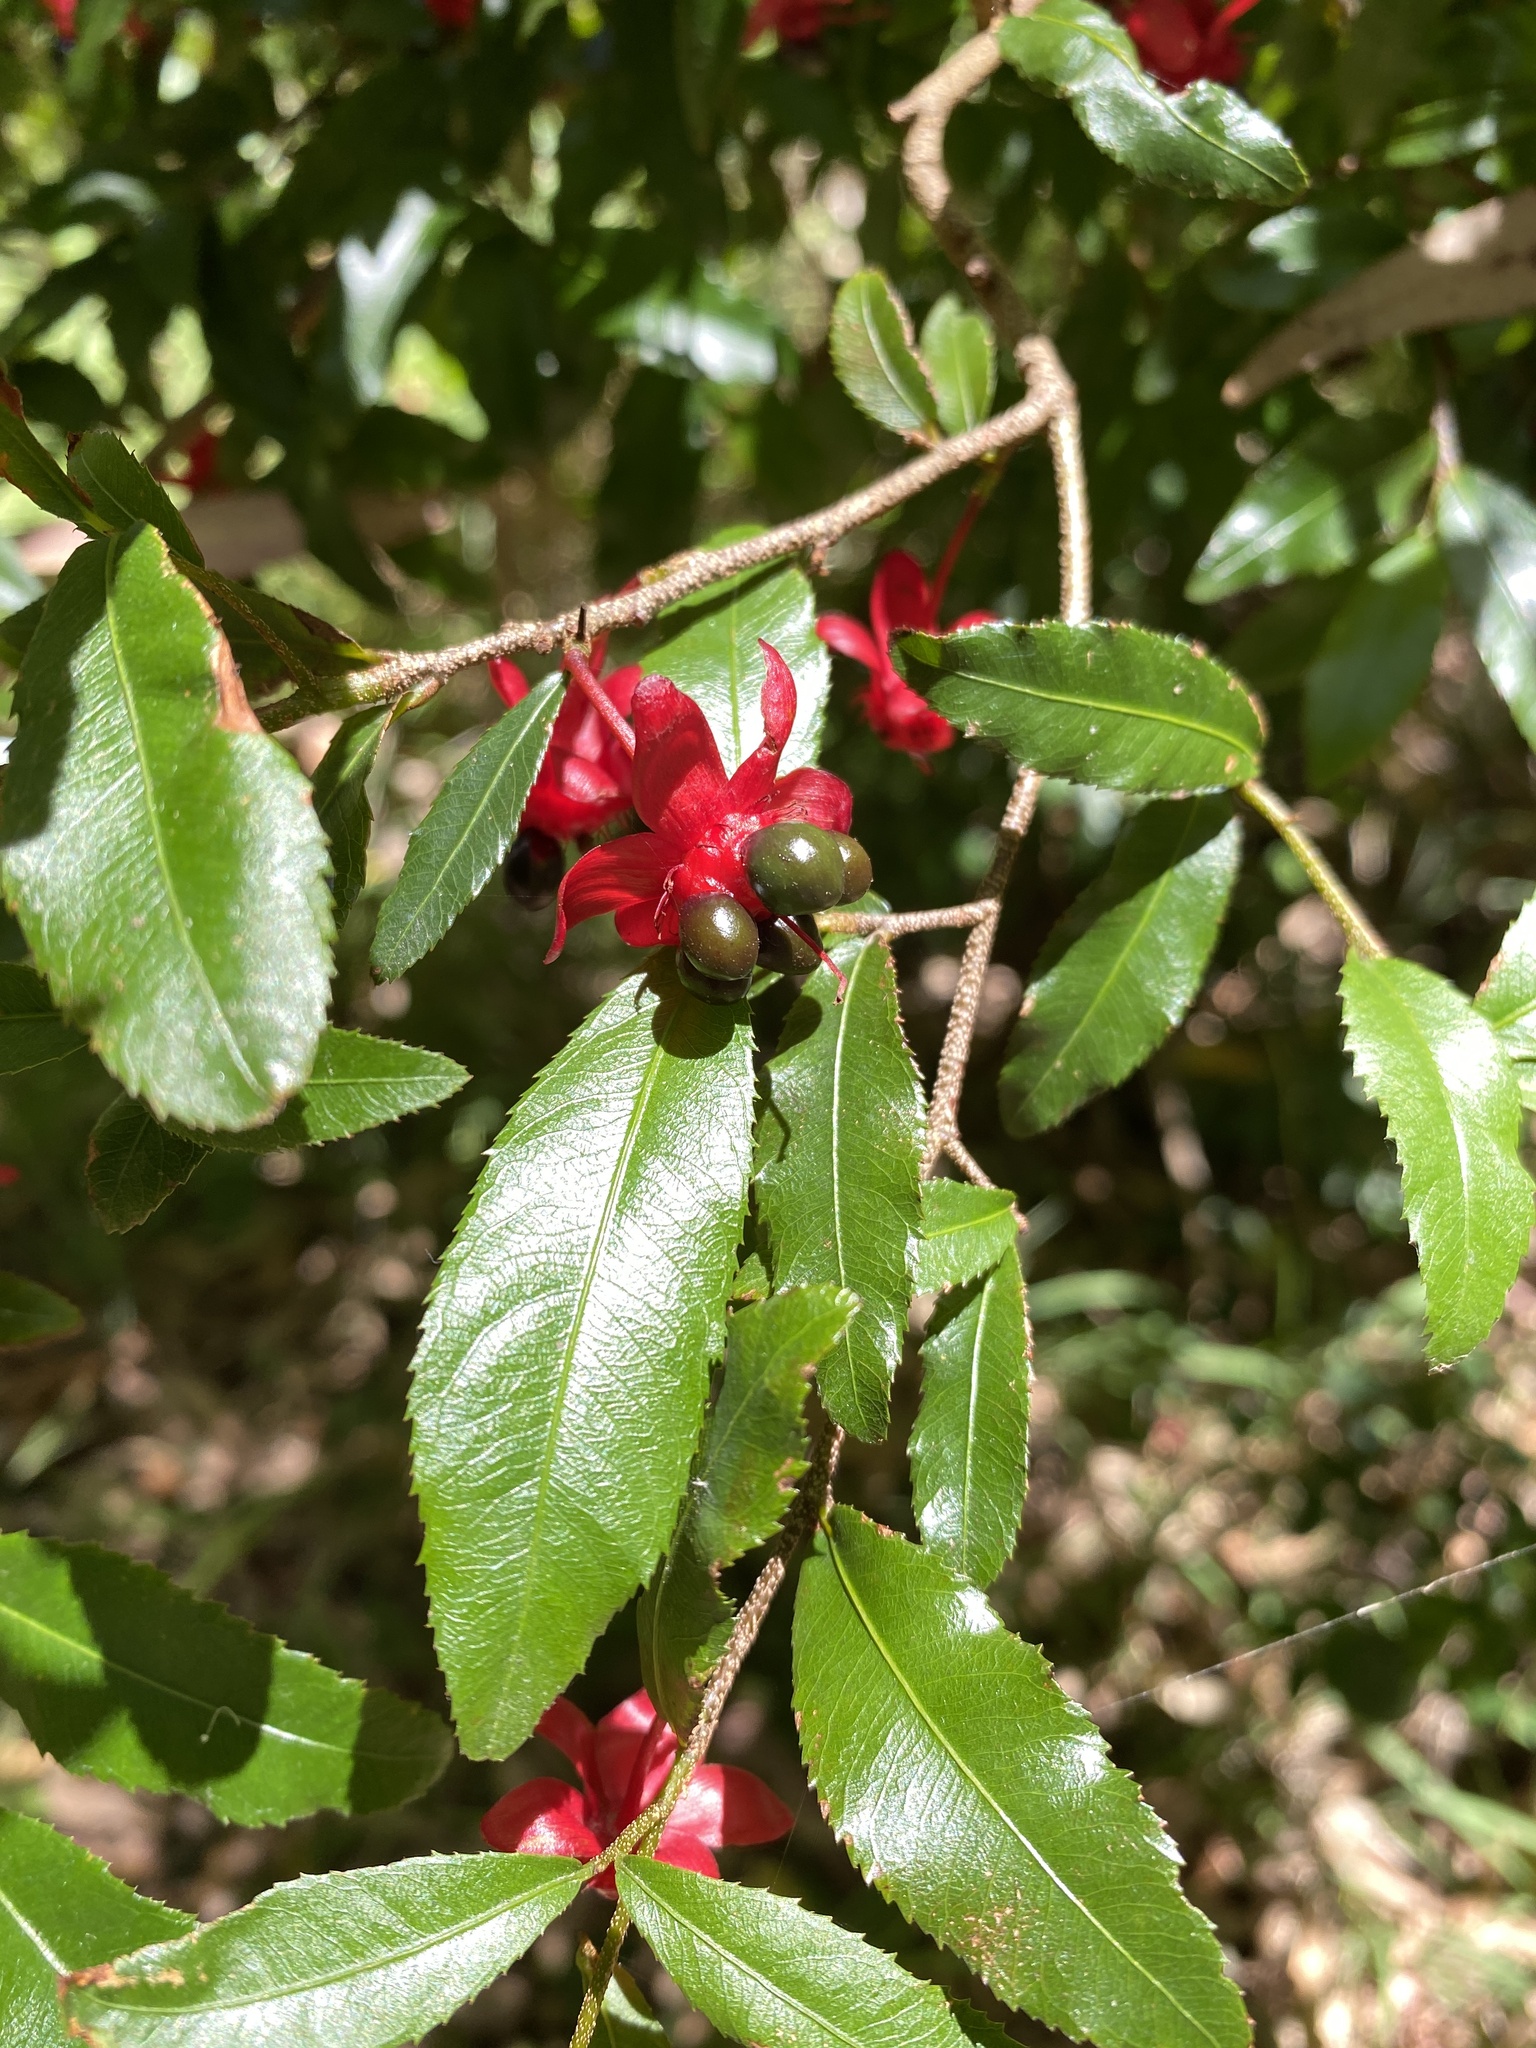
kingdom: Plantae
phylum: Tracheophyta
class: Magnoliopsida
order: Malpighiales
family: Ochnaceae
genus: Ochna
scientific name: Ochna serrulata
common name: Mickey mouse plant
